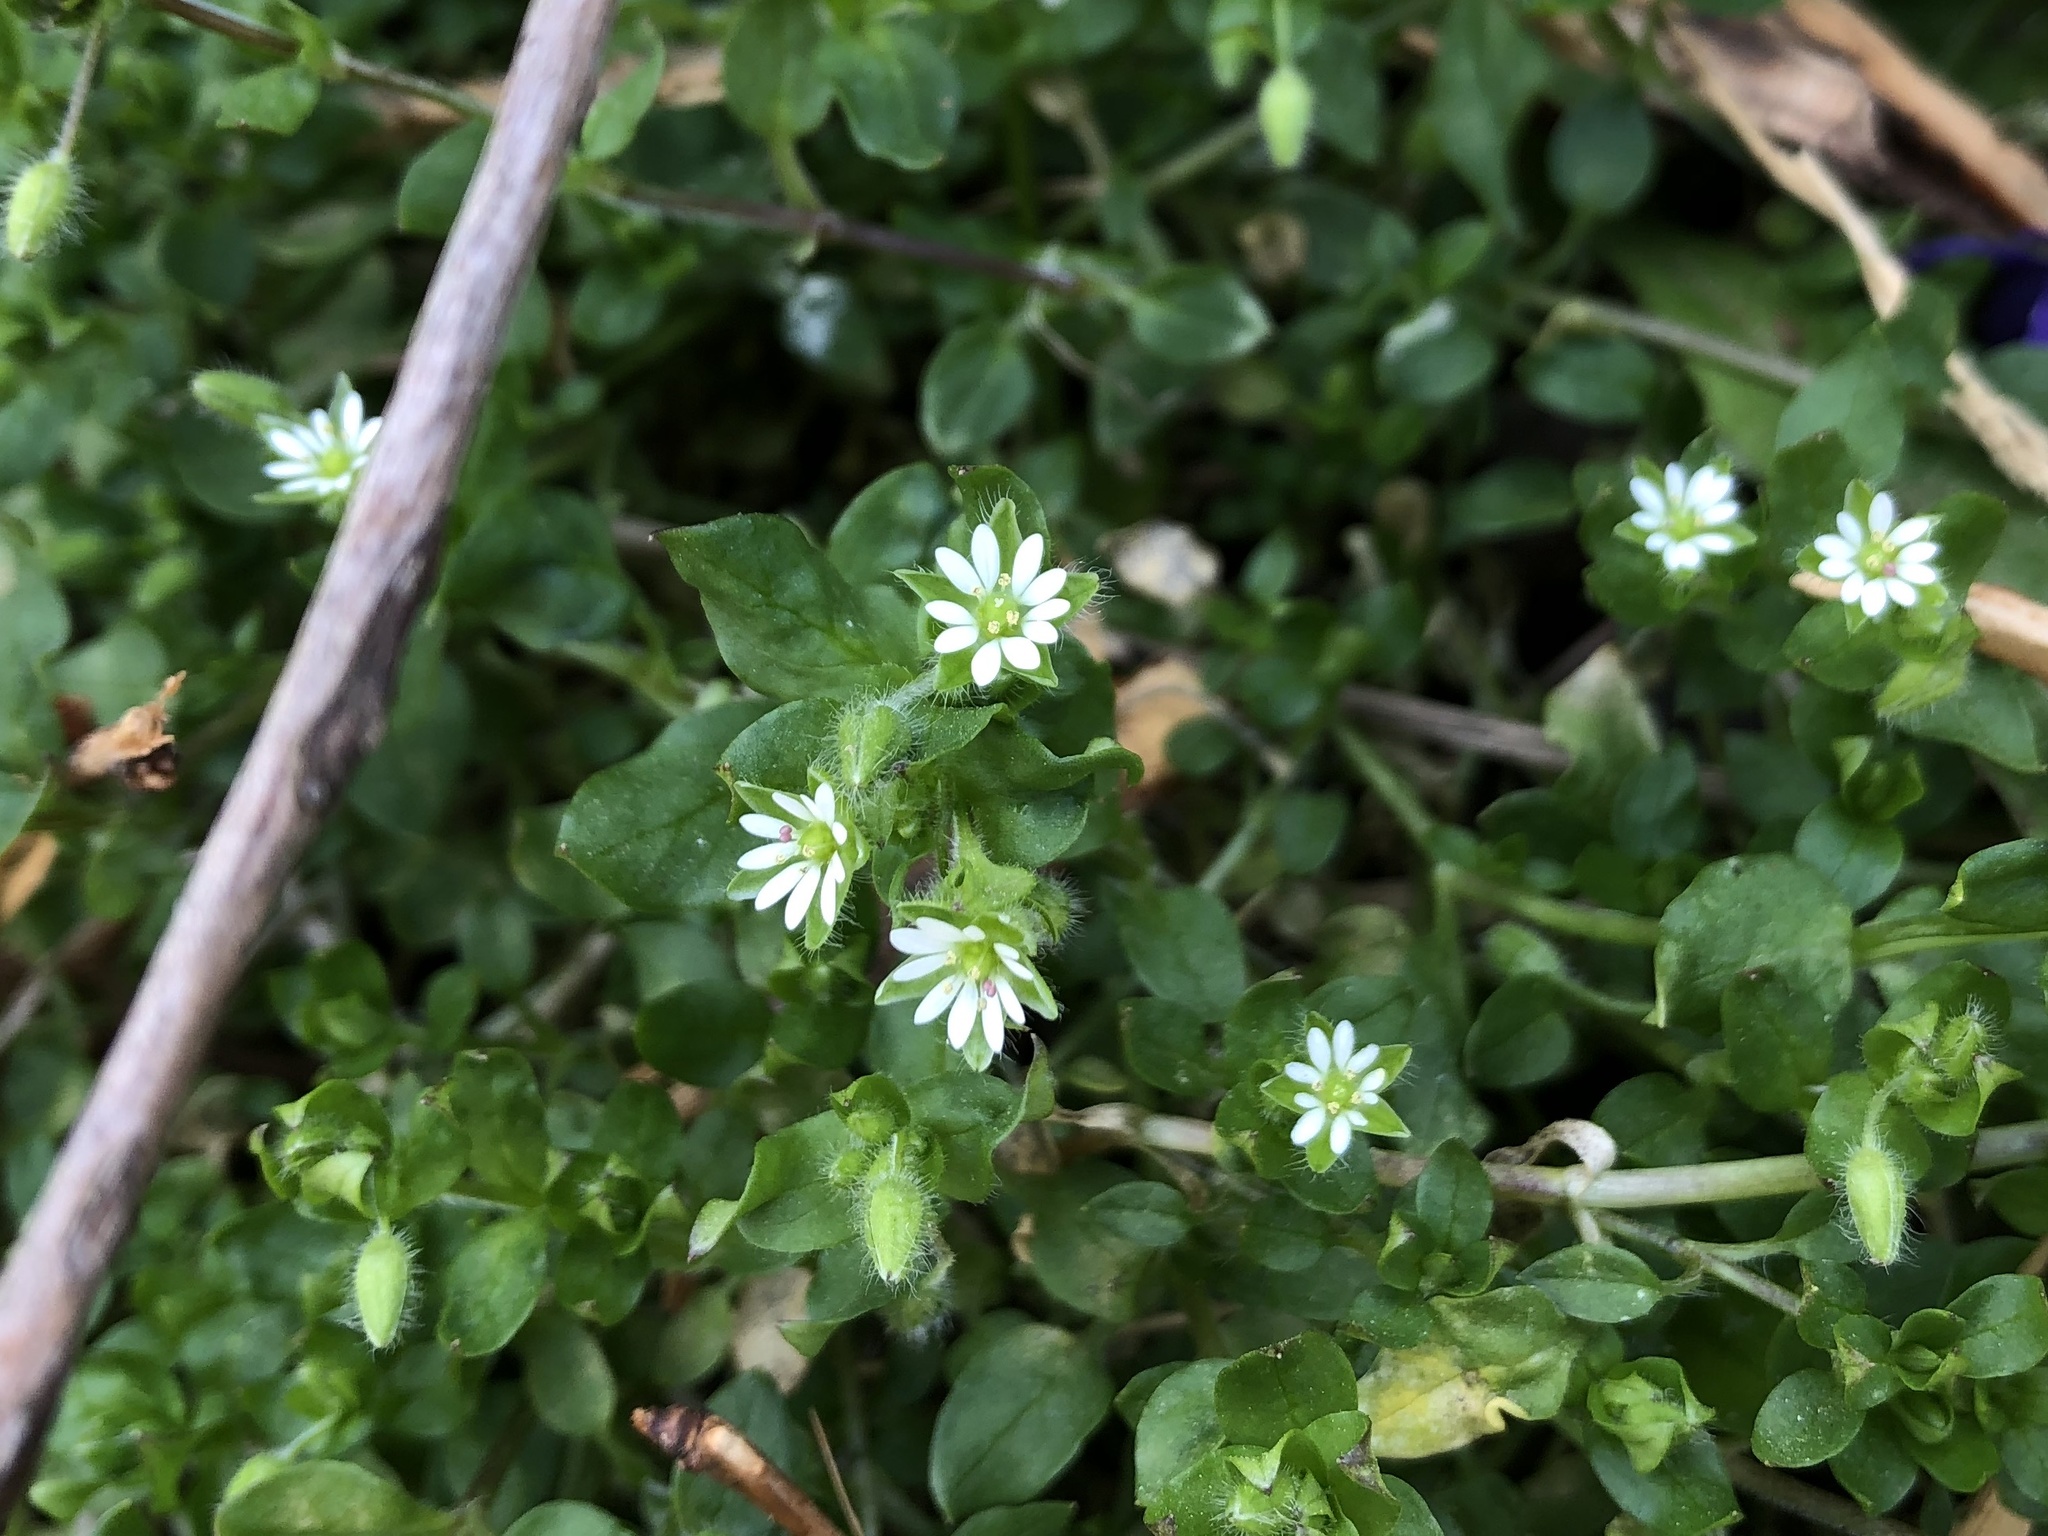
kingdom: Plantae
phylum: Tracheophyta
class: Magnoliopsida
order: Caryophyllales
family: Caryophyllaceae
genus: Stellaria
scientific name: Stellaria media
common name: Common chickweed
